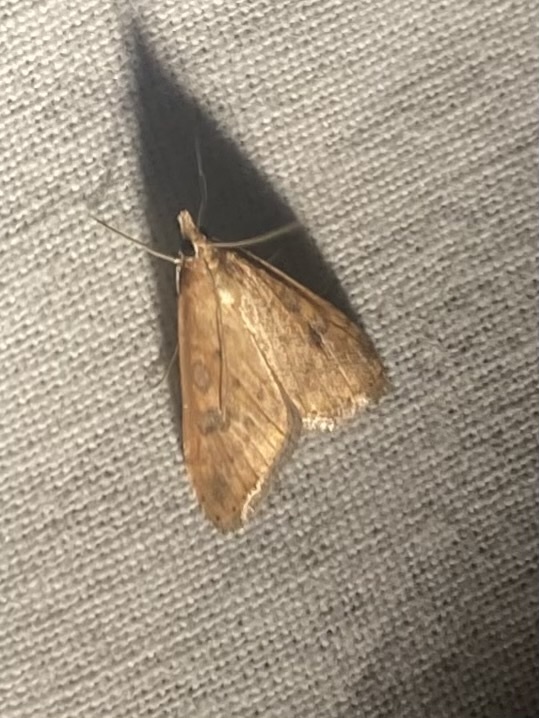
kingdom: Animalia
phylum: Arthropoda
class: Insecta
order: Lepidoptera
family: Crambidae
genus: Udea
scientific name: Udea ferrugalis
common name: Rusty dot
